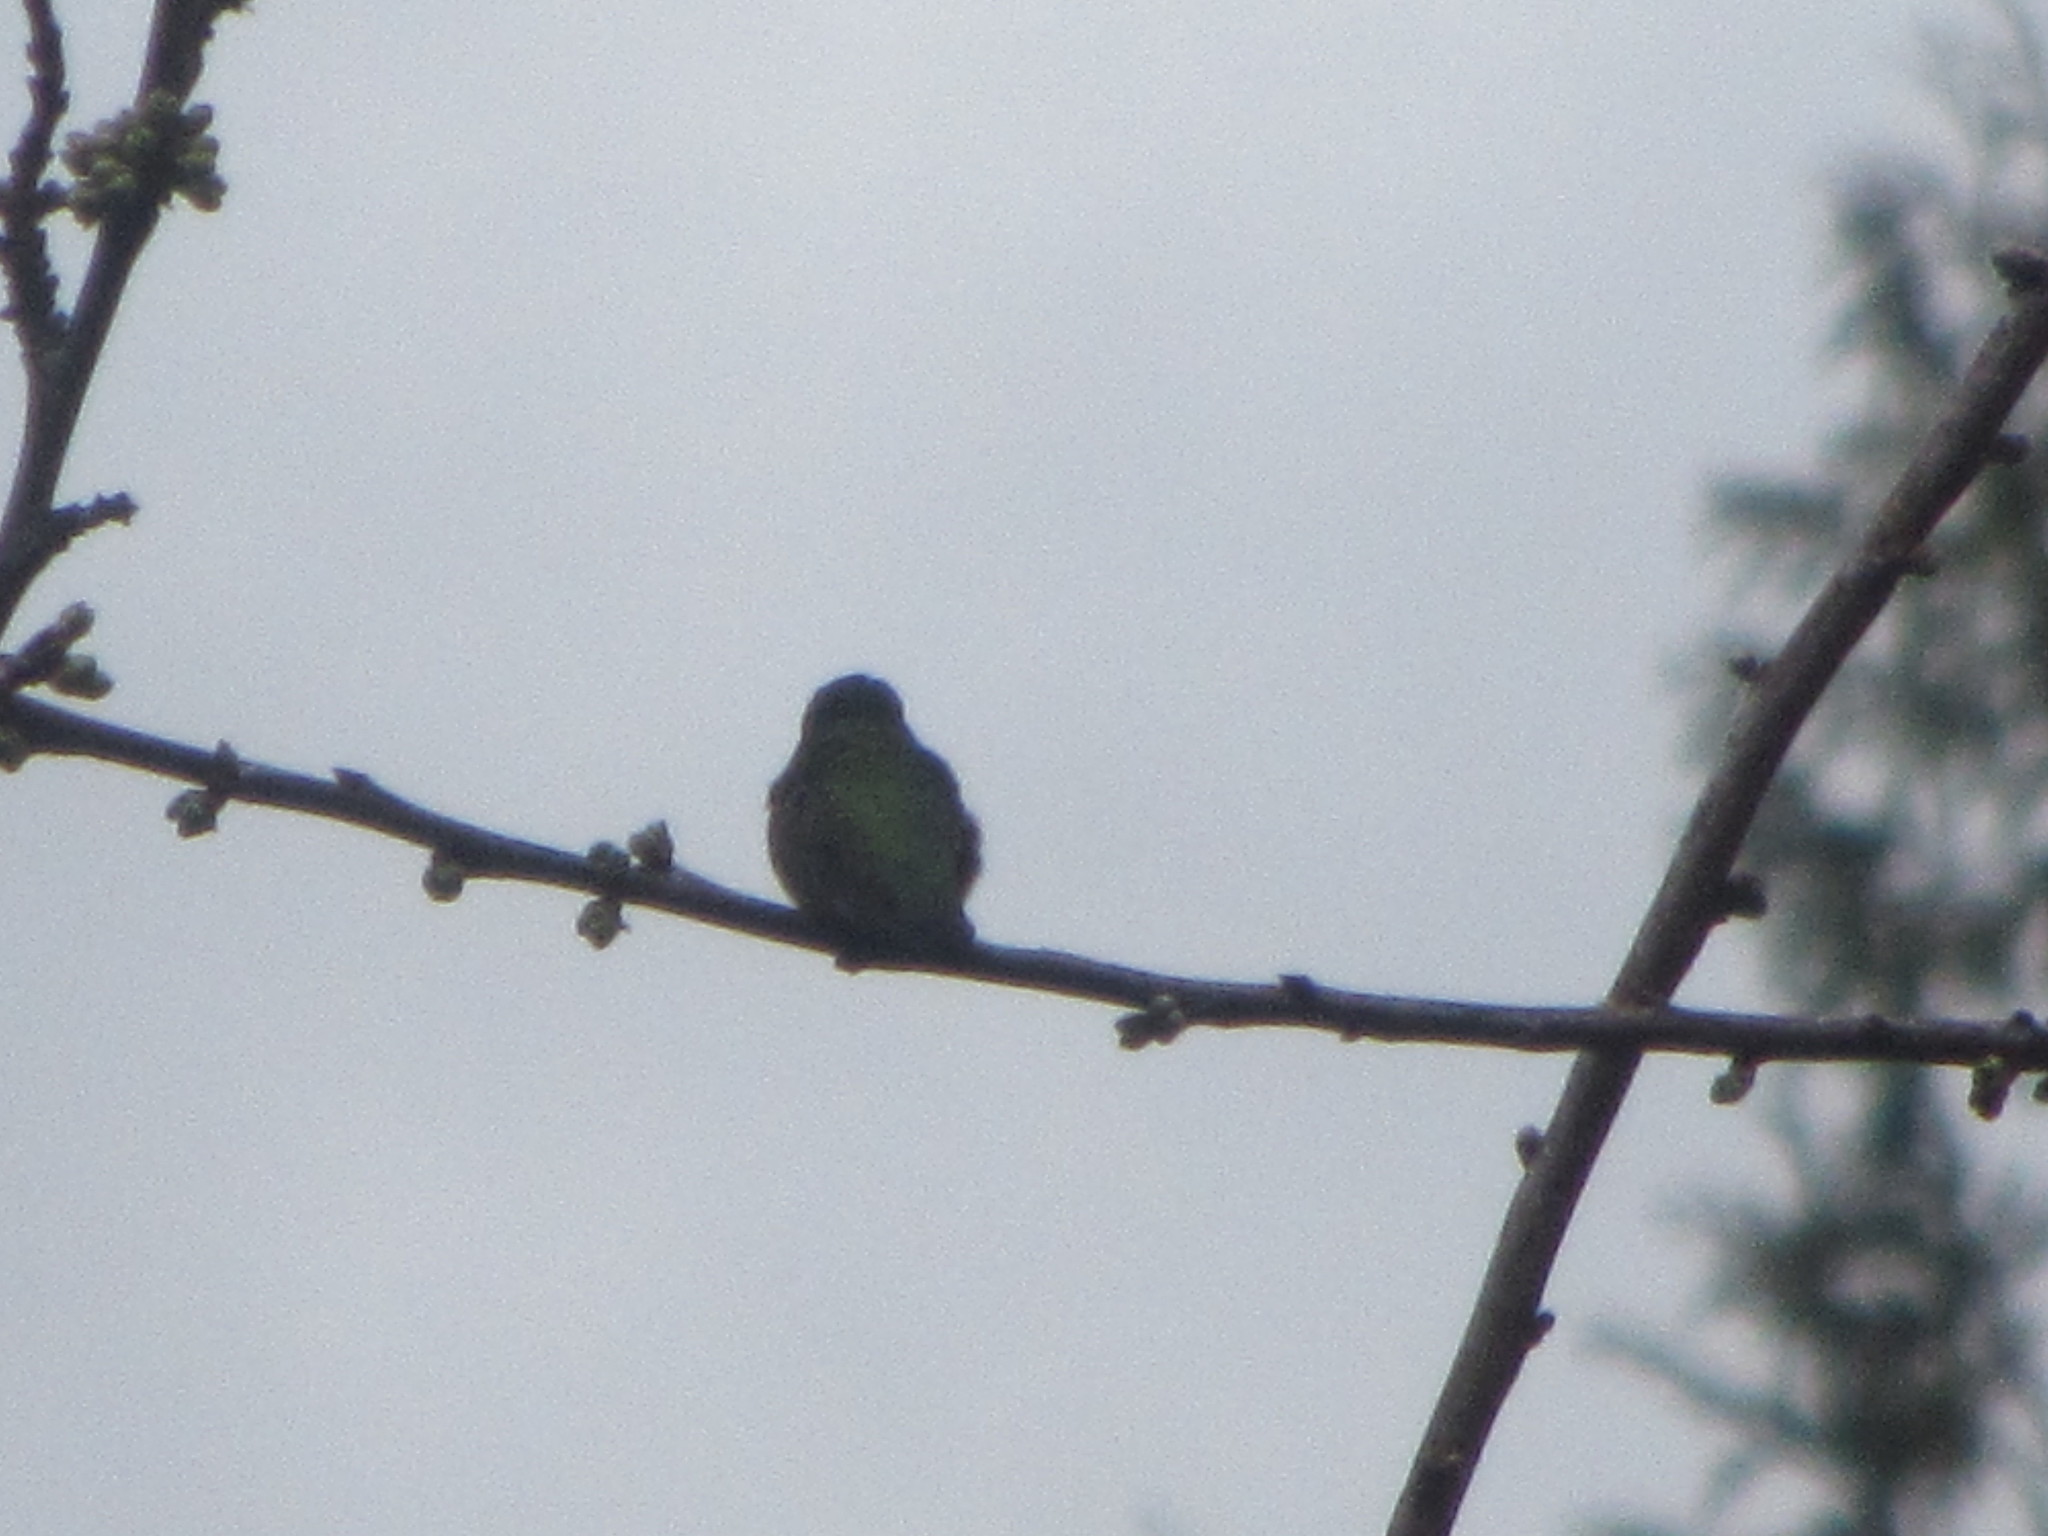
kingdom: Animalia
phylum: Chordata
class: Aves
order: Apodiformes
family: Trochilidae
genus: Calypte
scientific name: Calypte anna
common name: Anna's hummingbird
